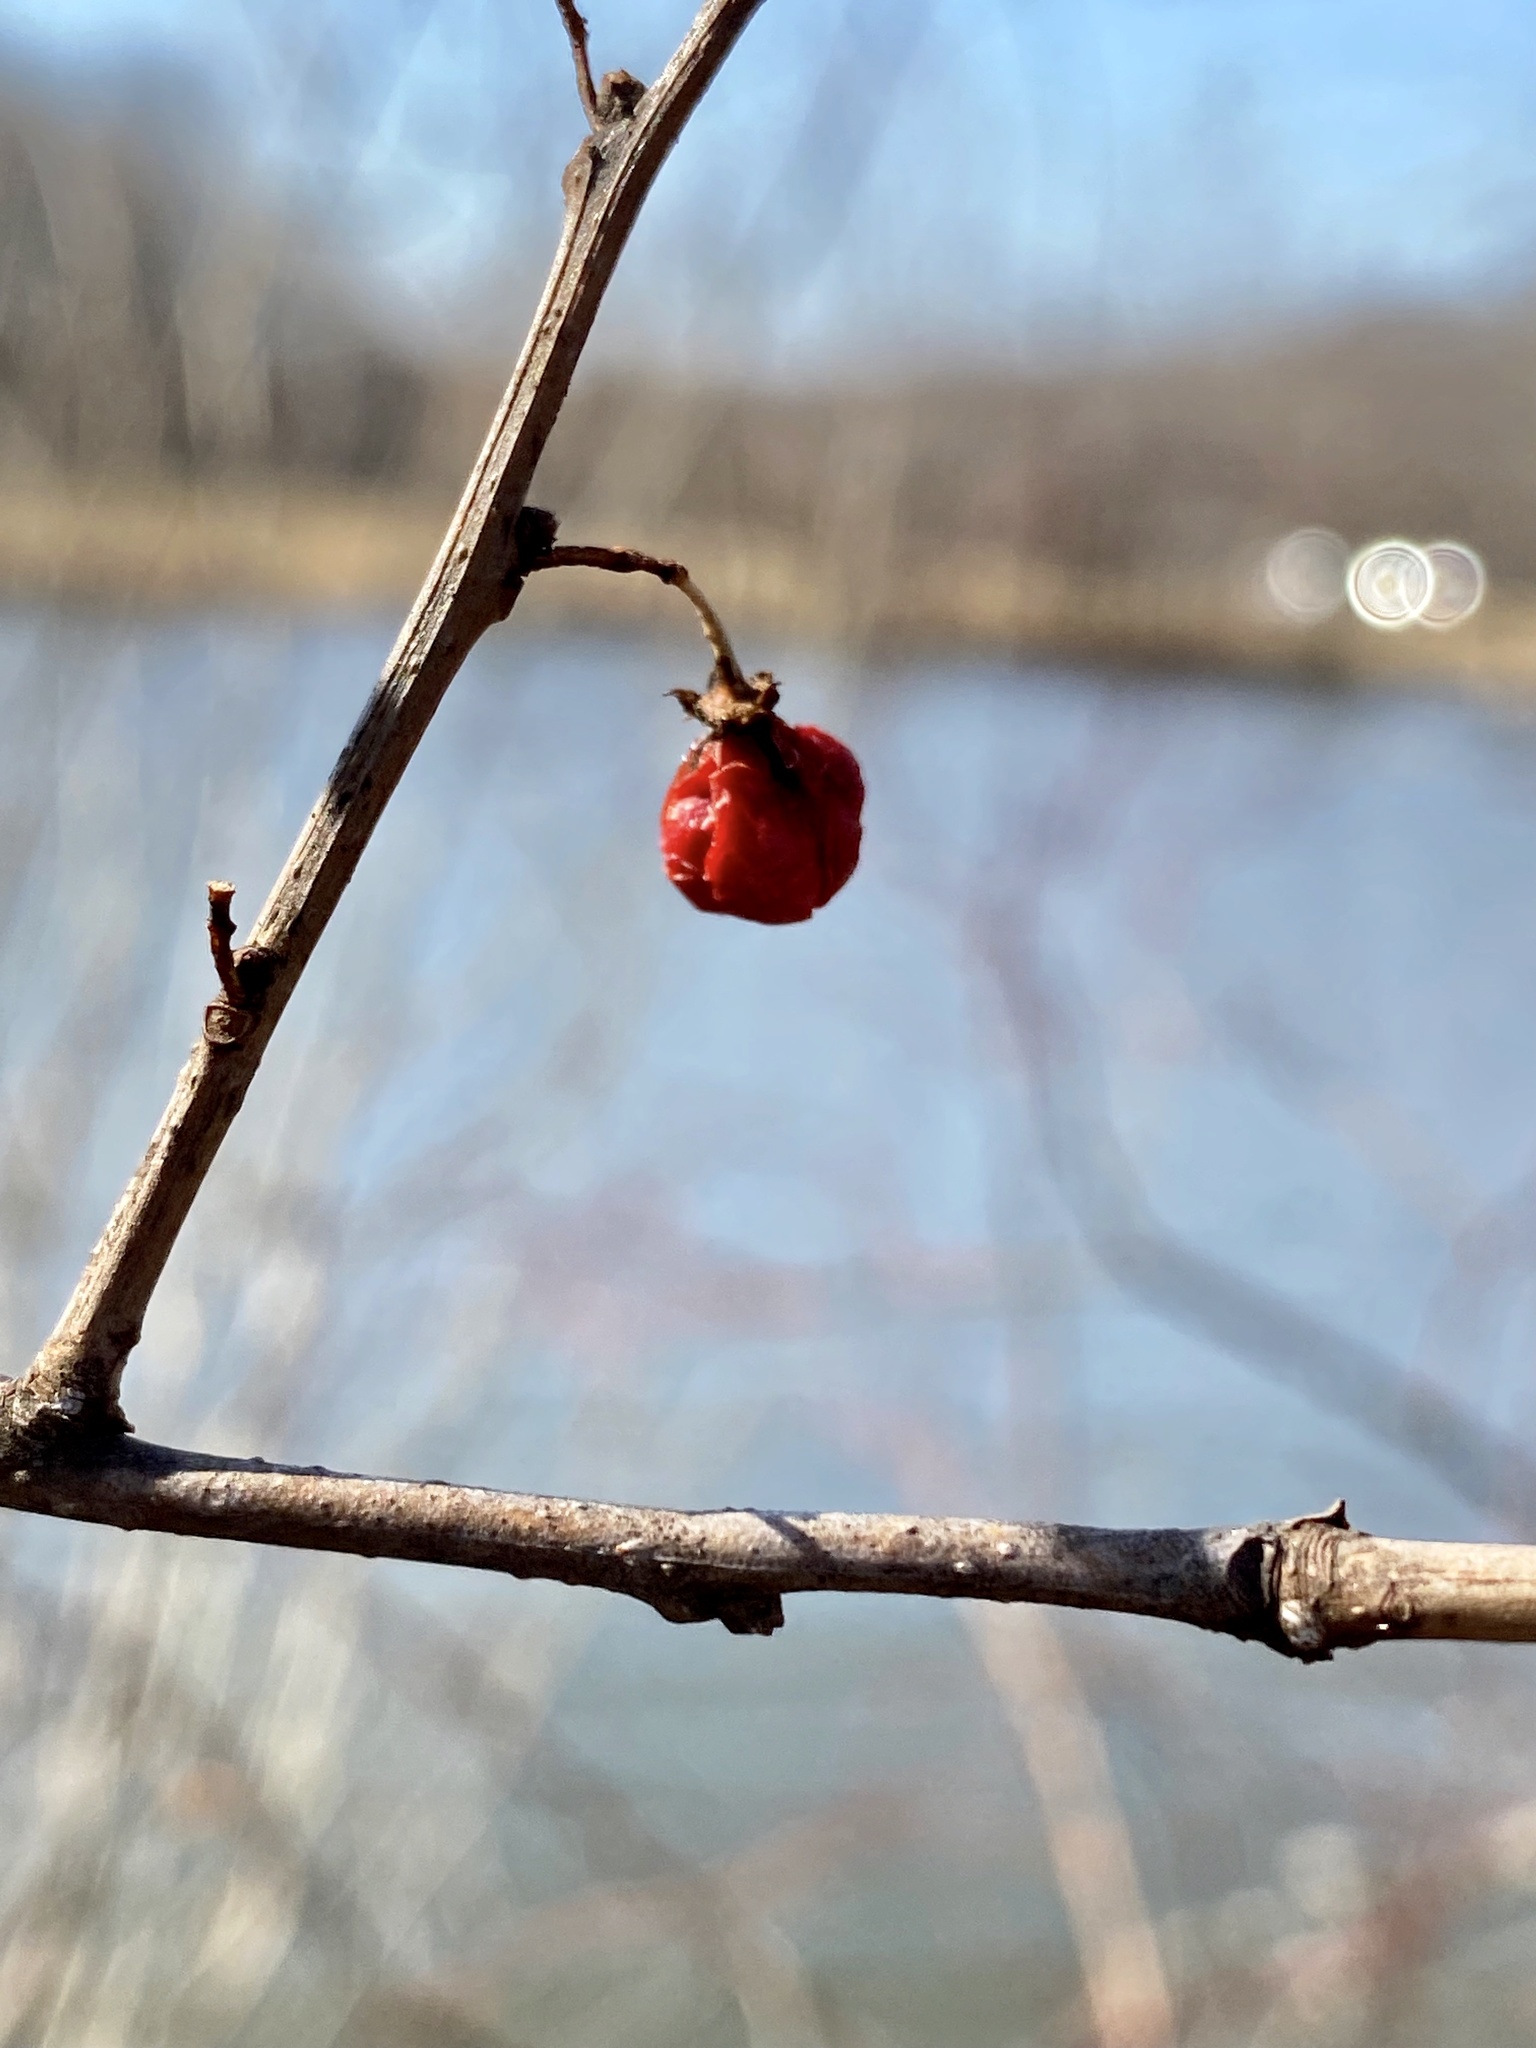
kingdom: Plantae
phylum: Tracheophyta
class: Magnoliopsida
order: Celastrales
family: Celastraceae
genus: Celastrus
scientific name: Celastrus orbiculatus
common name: Oriental bittersweet
